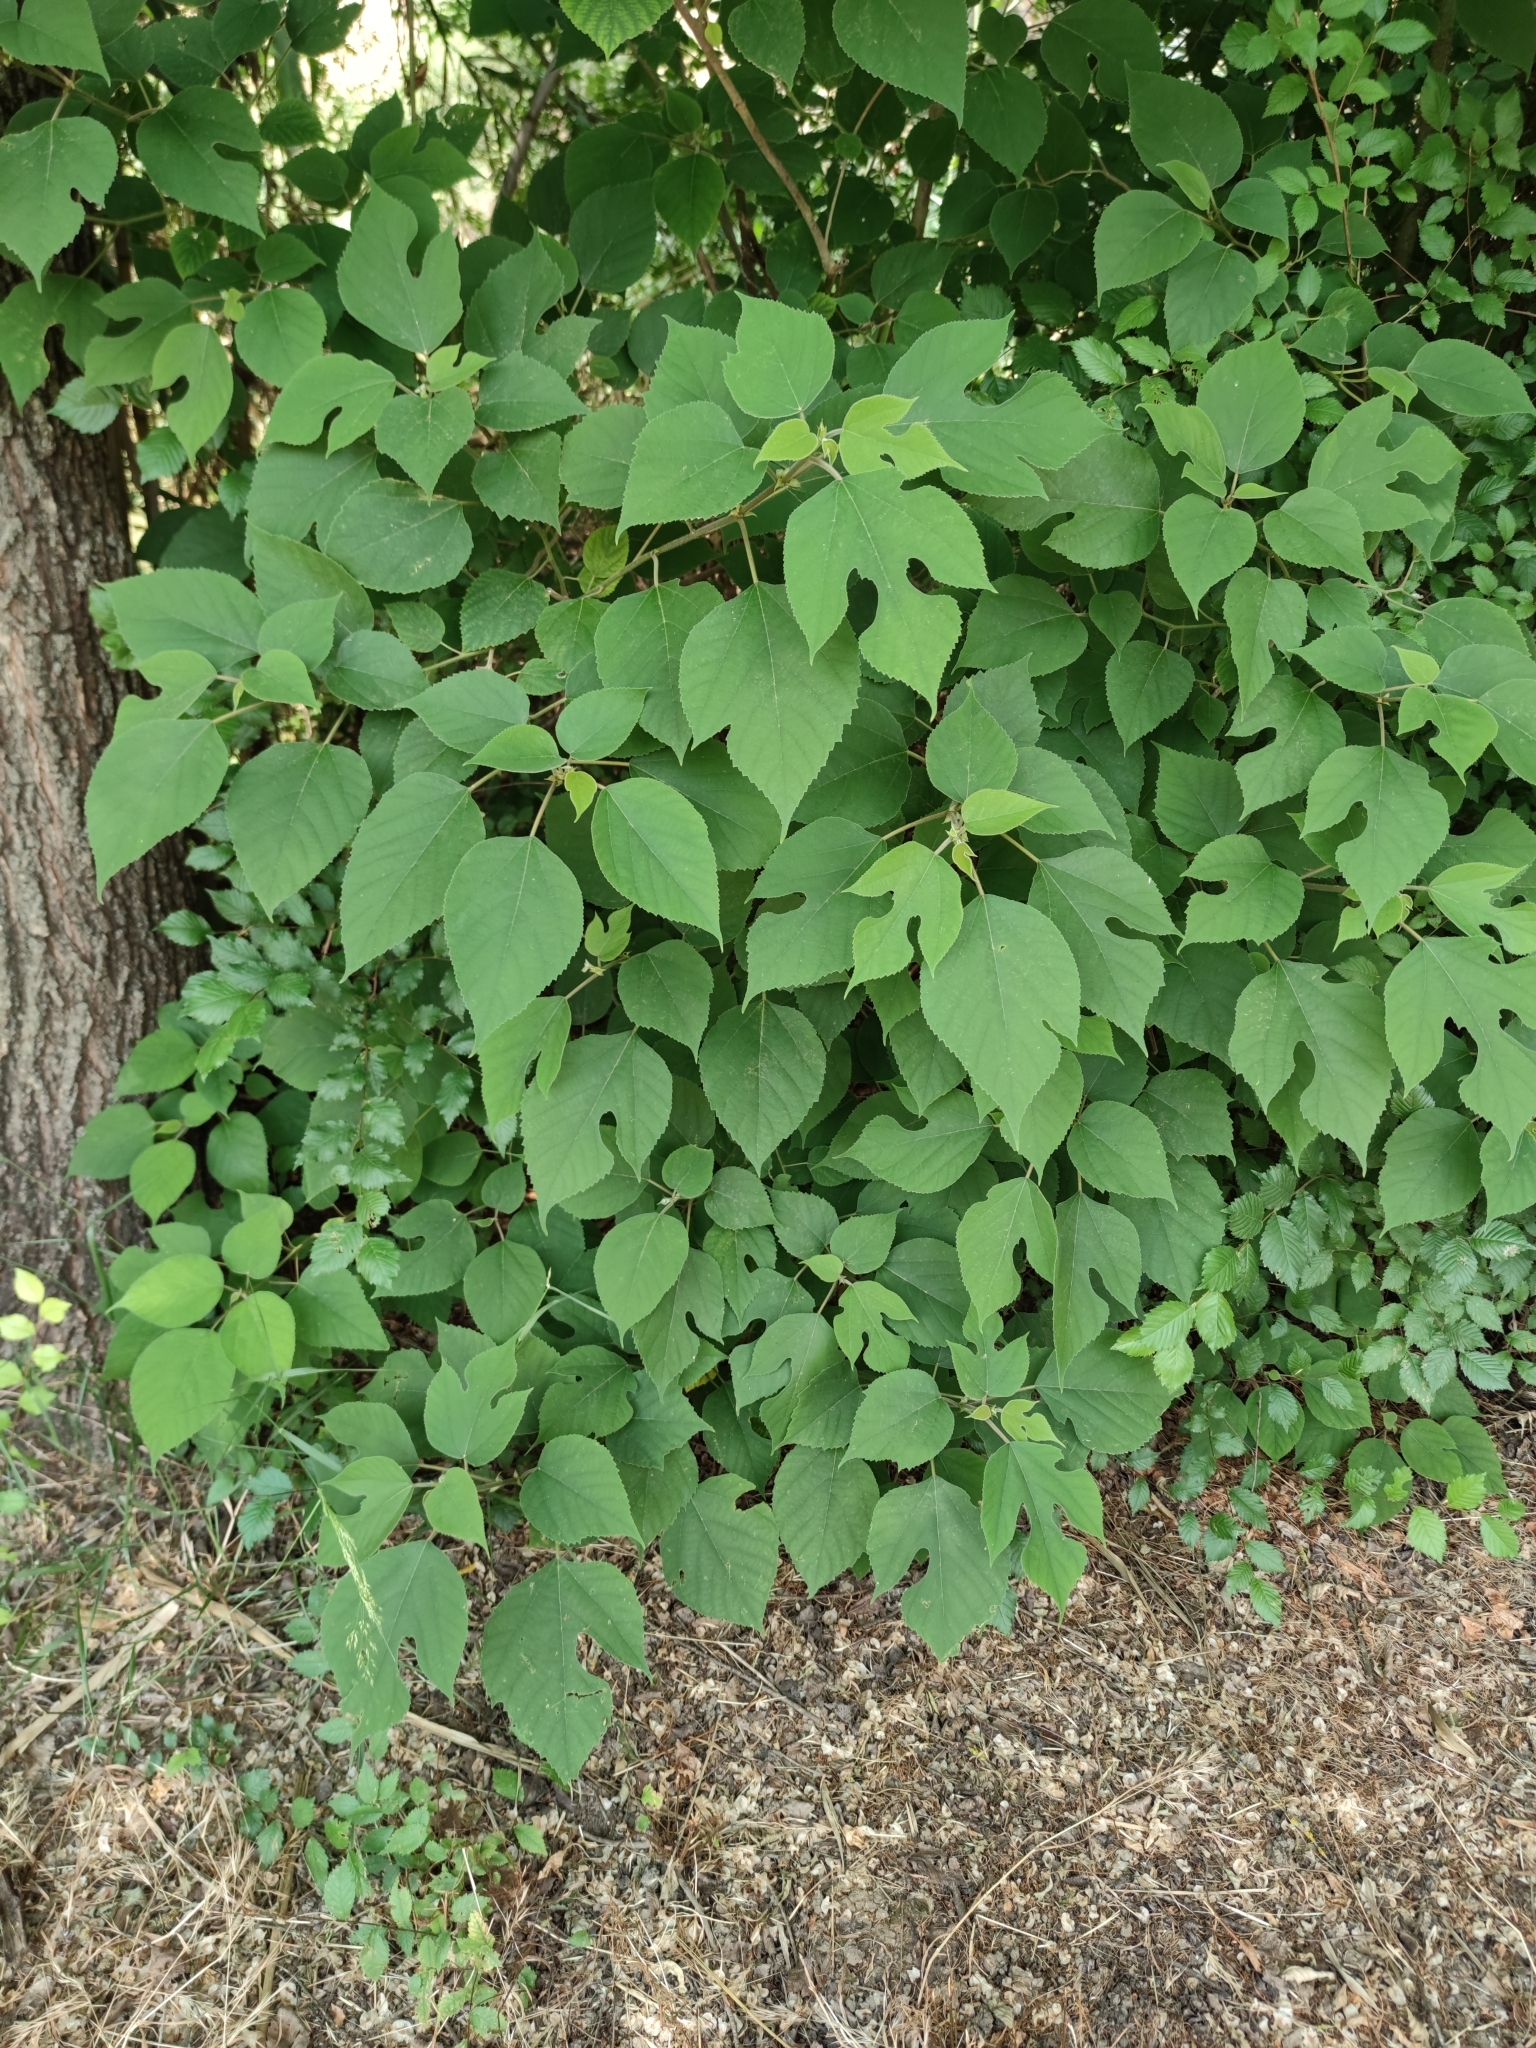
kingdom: Plantae
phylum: Tracheophyta
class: Magnoliopsida
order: Rosales
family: Moraceae
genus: Broussonetia
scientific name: Broussonetia papyrifera
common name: Paper mulberry
